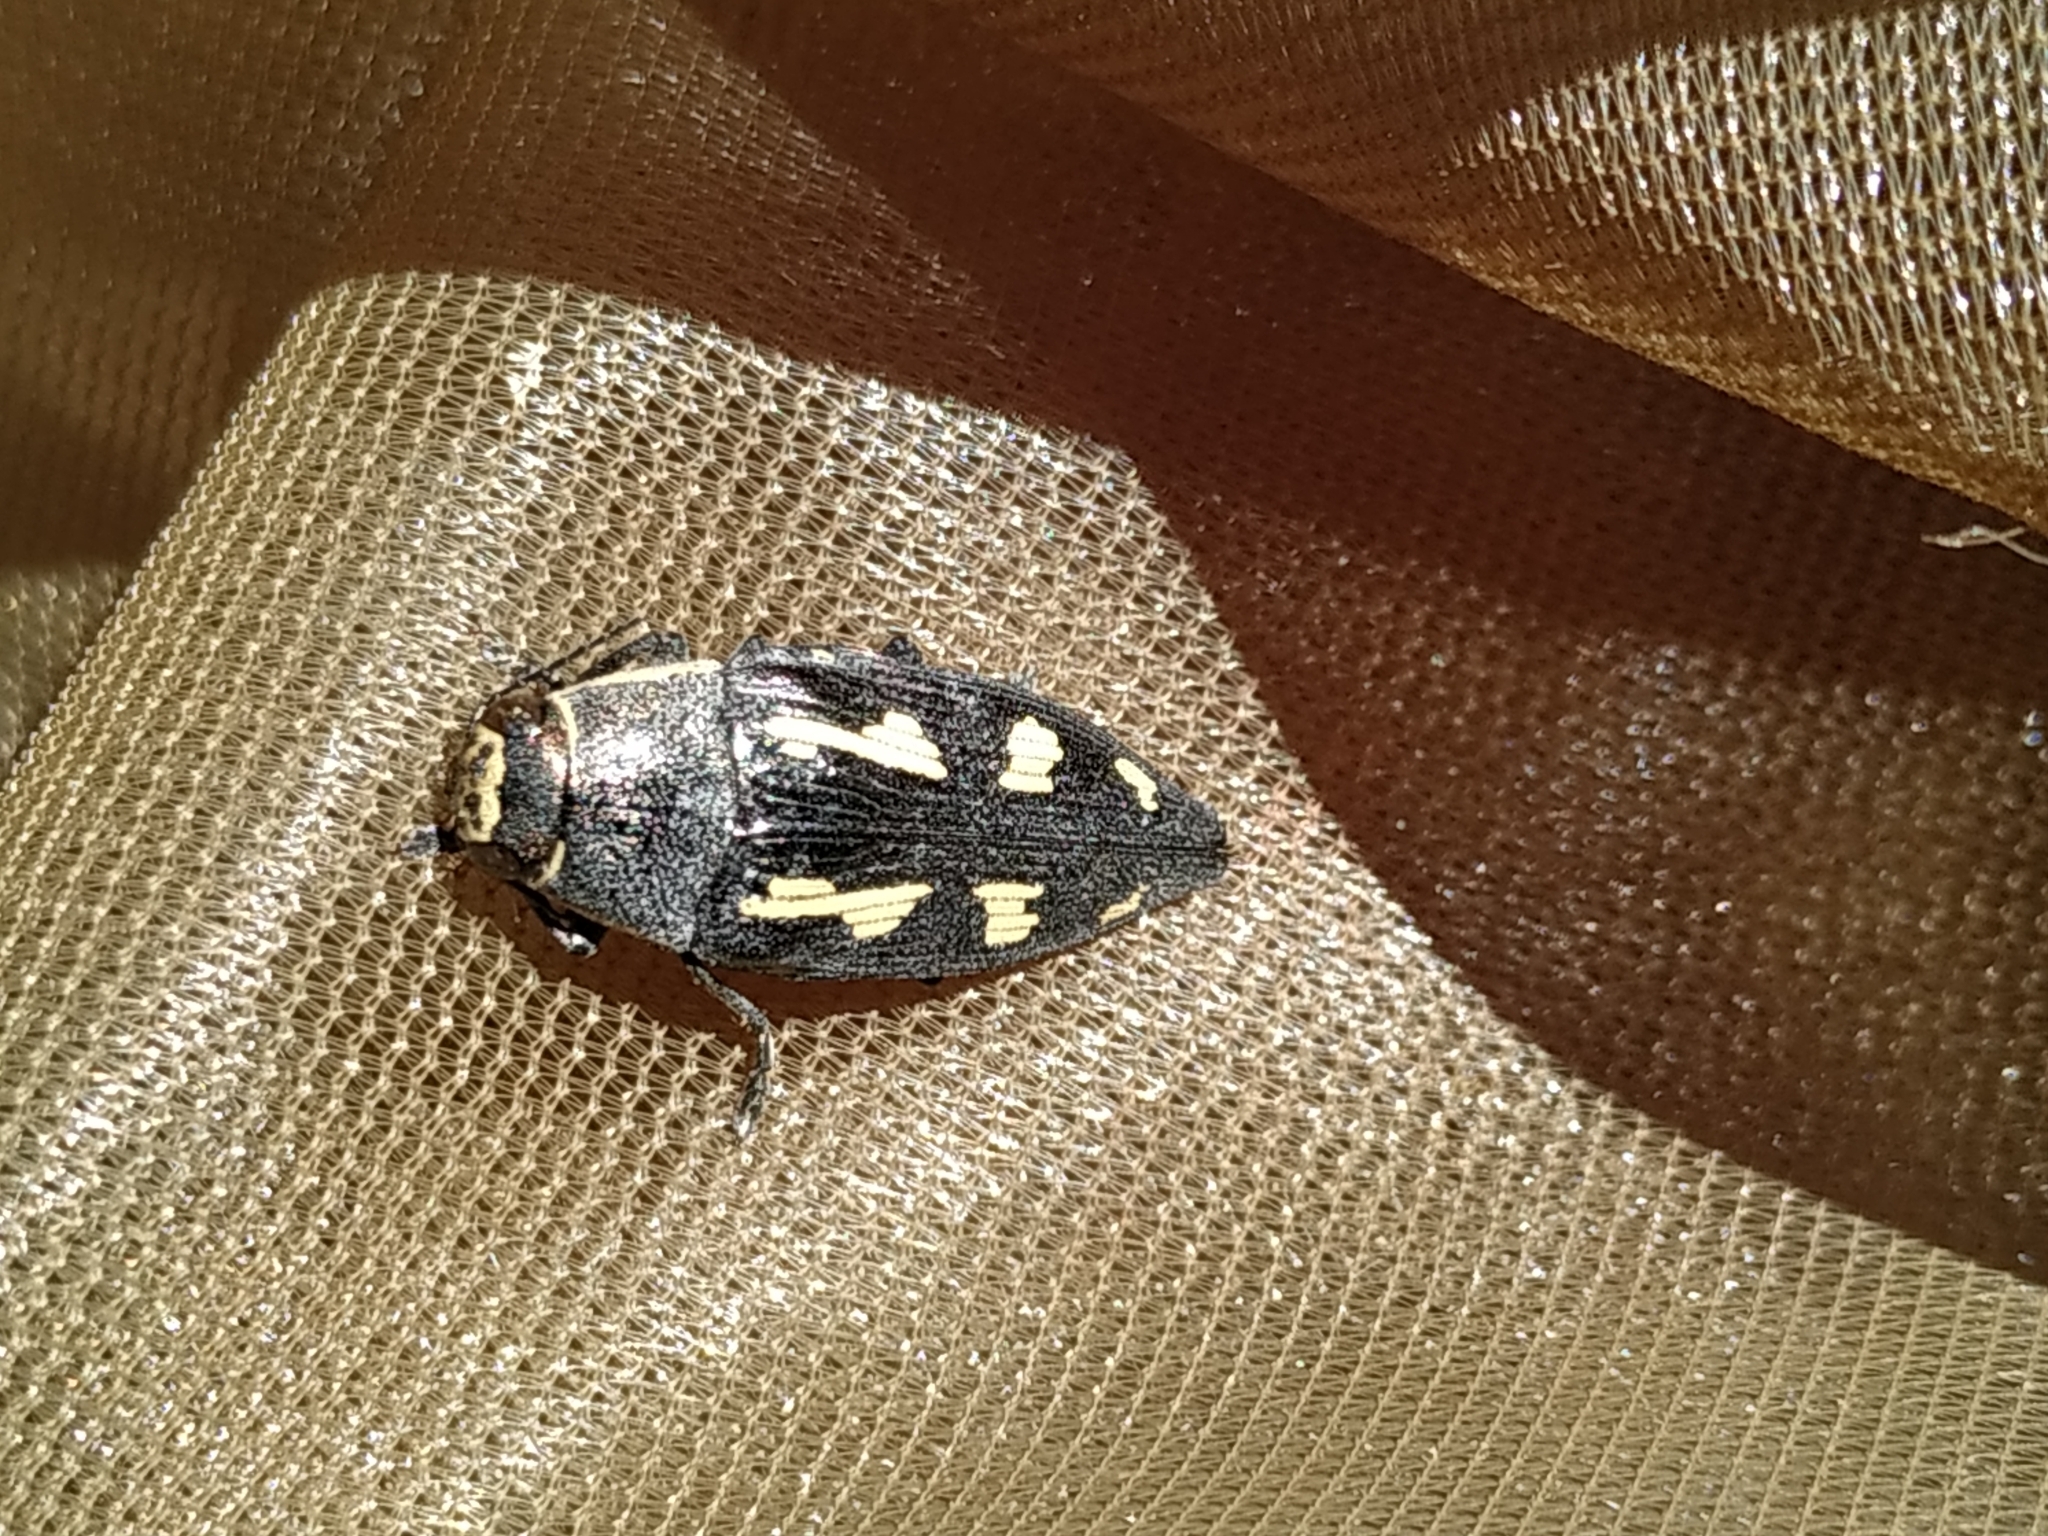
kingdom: Animalia
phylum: Arthropoda
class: Insecta
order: Coleoptera
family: Buprestidae
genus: Buprestis
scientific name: Buprestis novemmaculata
